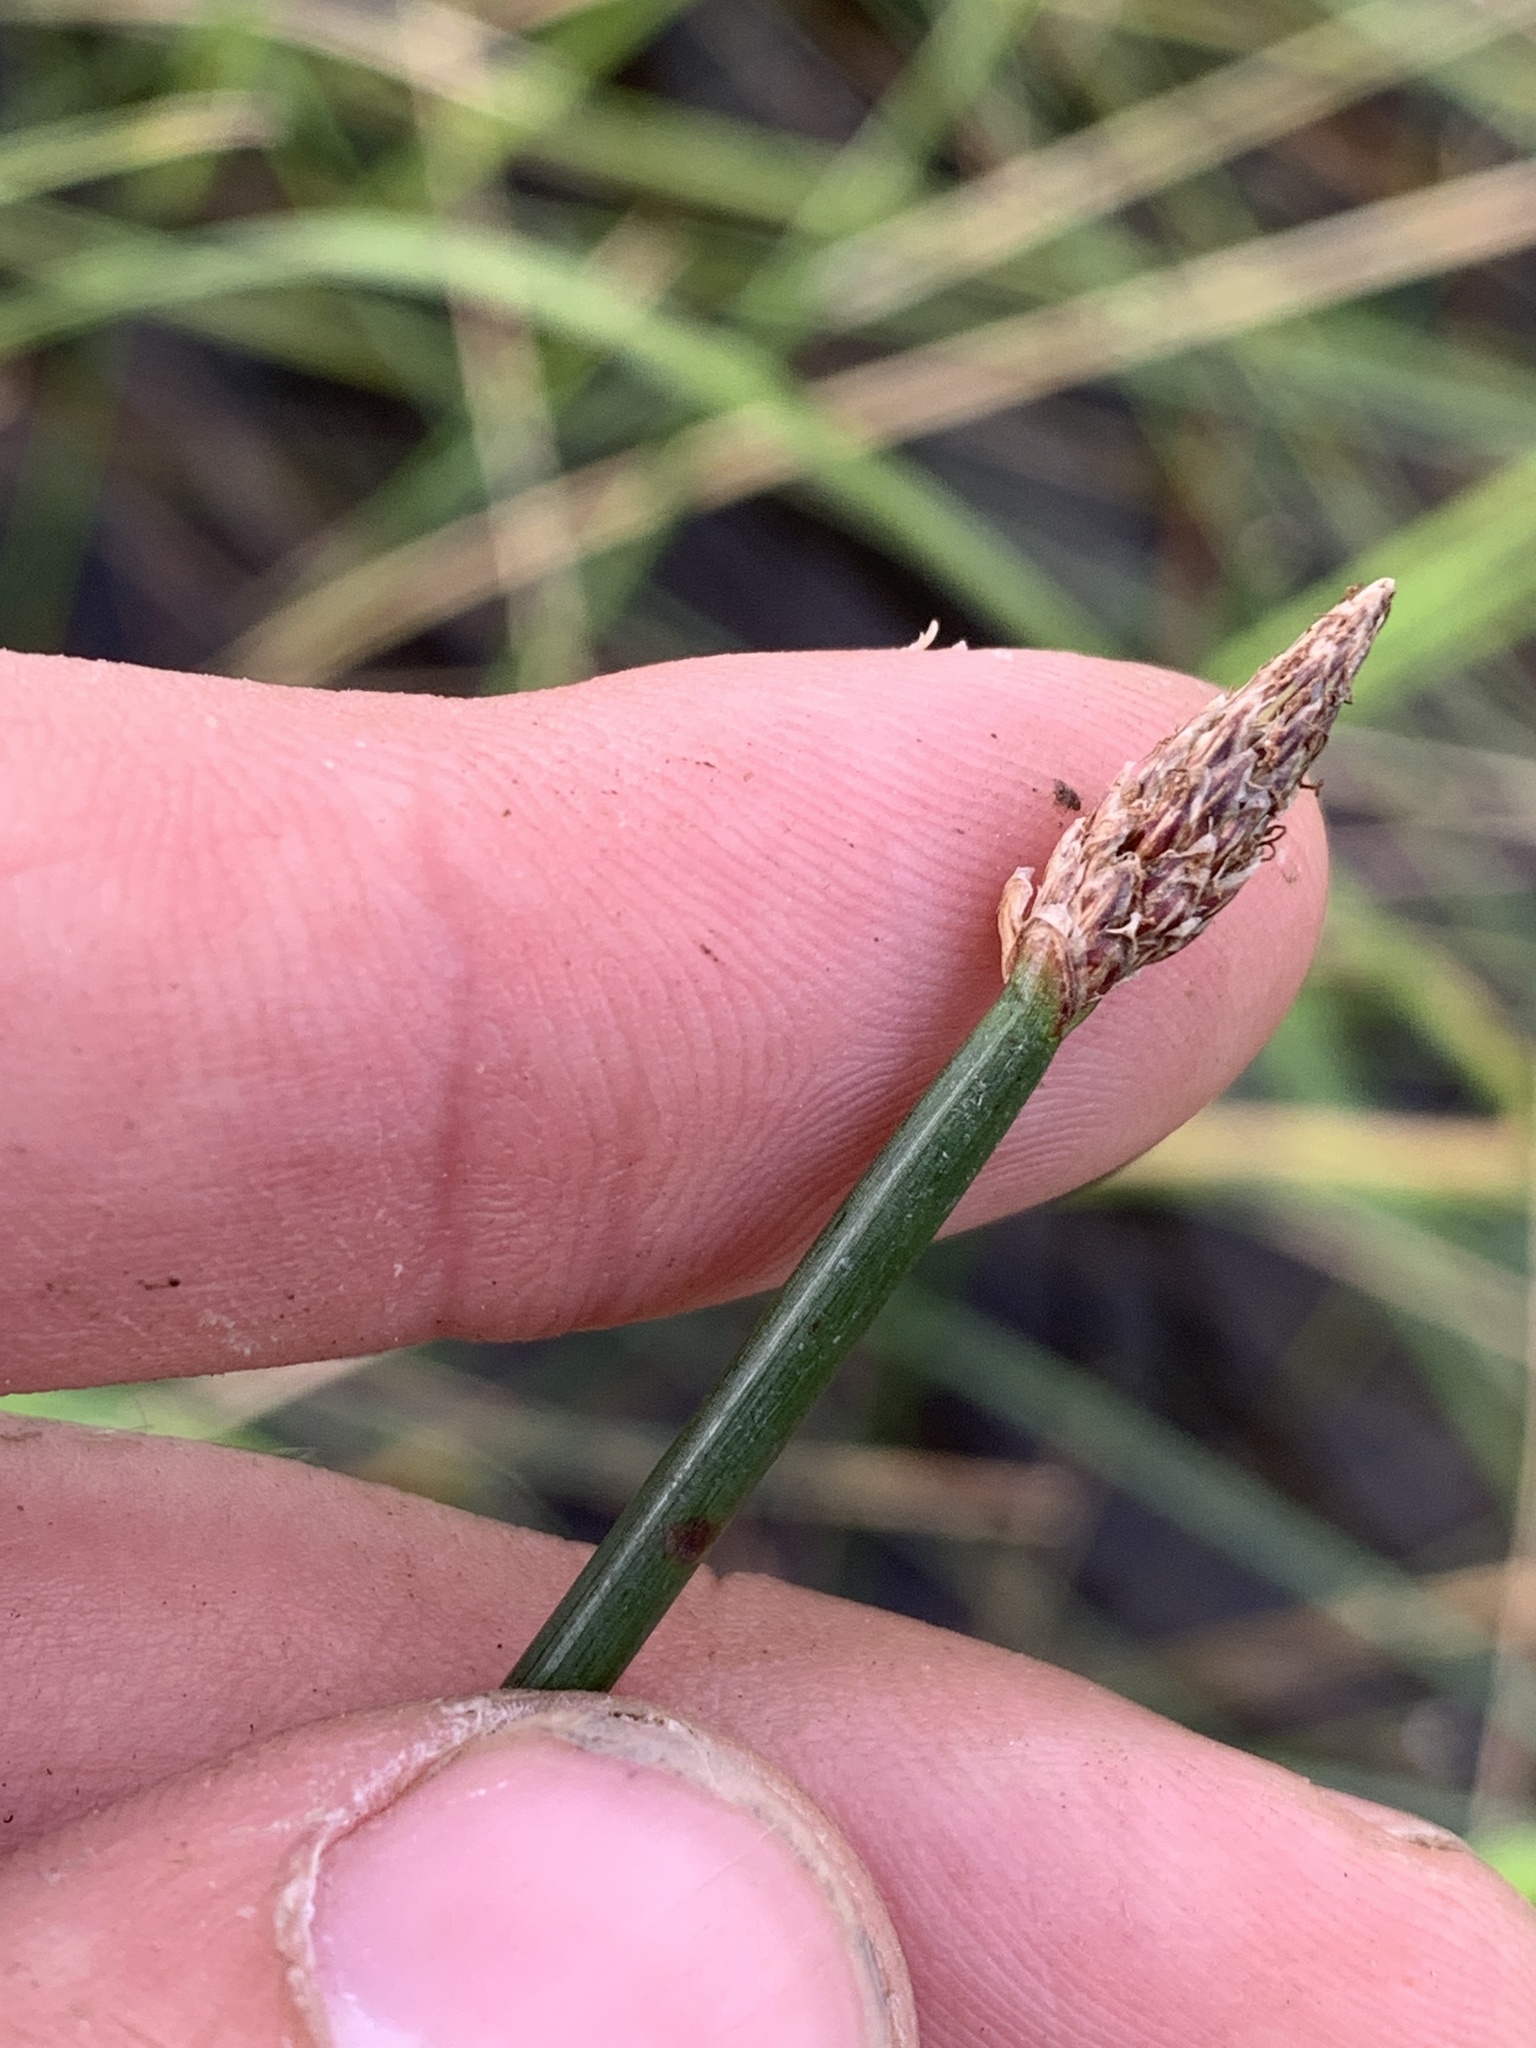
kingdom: Plantae
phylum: Tracheophyta
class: Liliopsida
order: Poales
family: Cyperaceae
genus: Eleocharis
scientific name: Eleocharis palustris
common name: Common spike-rush
